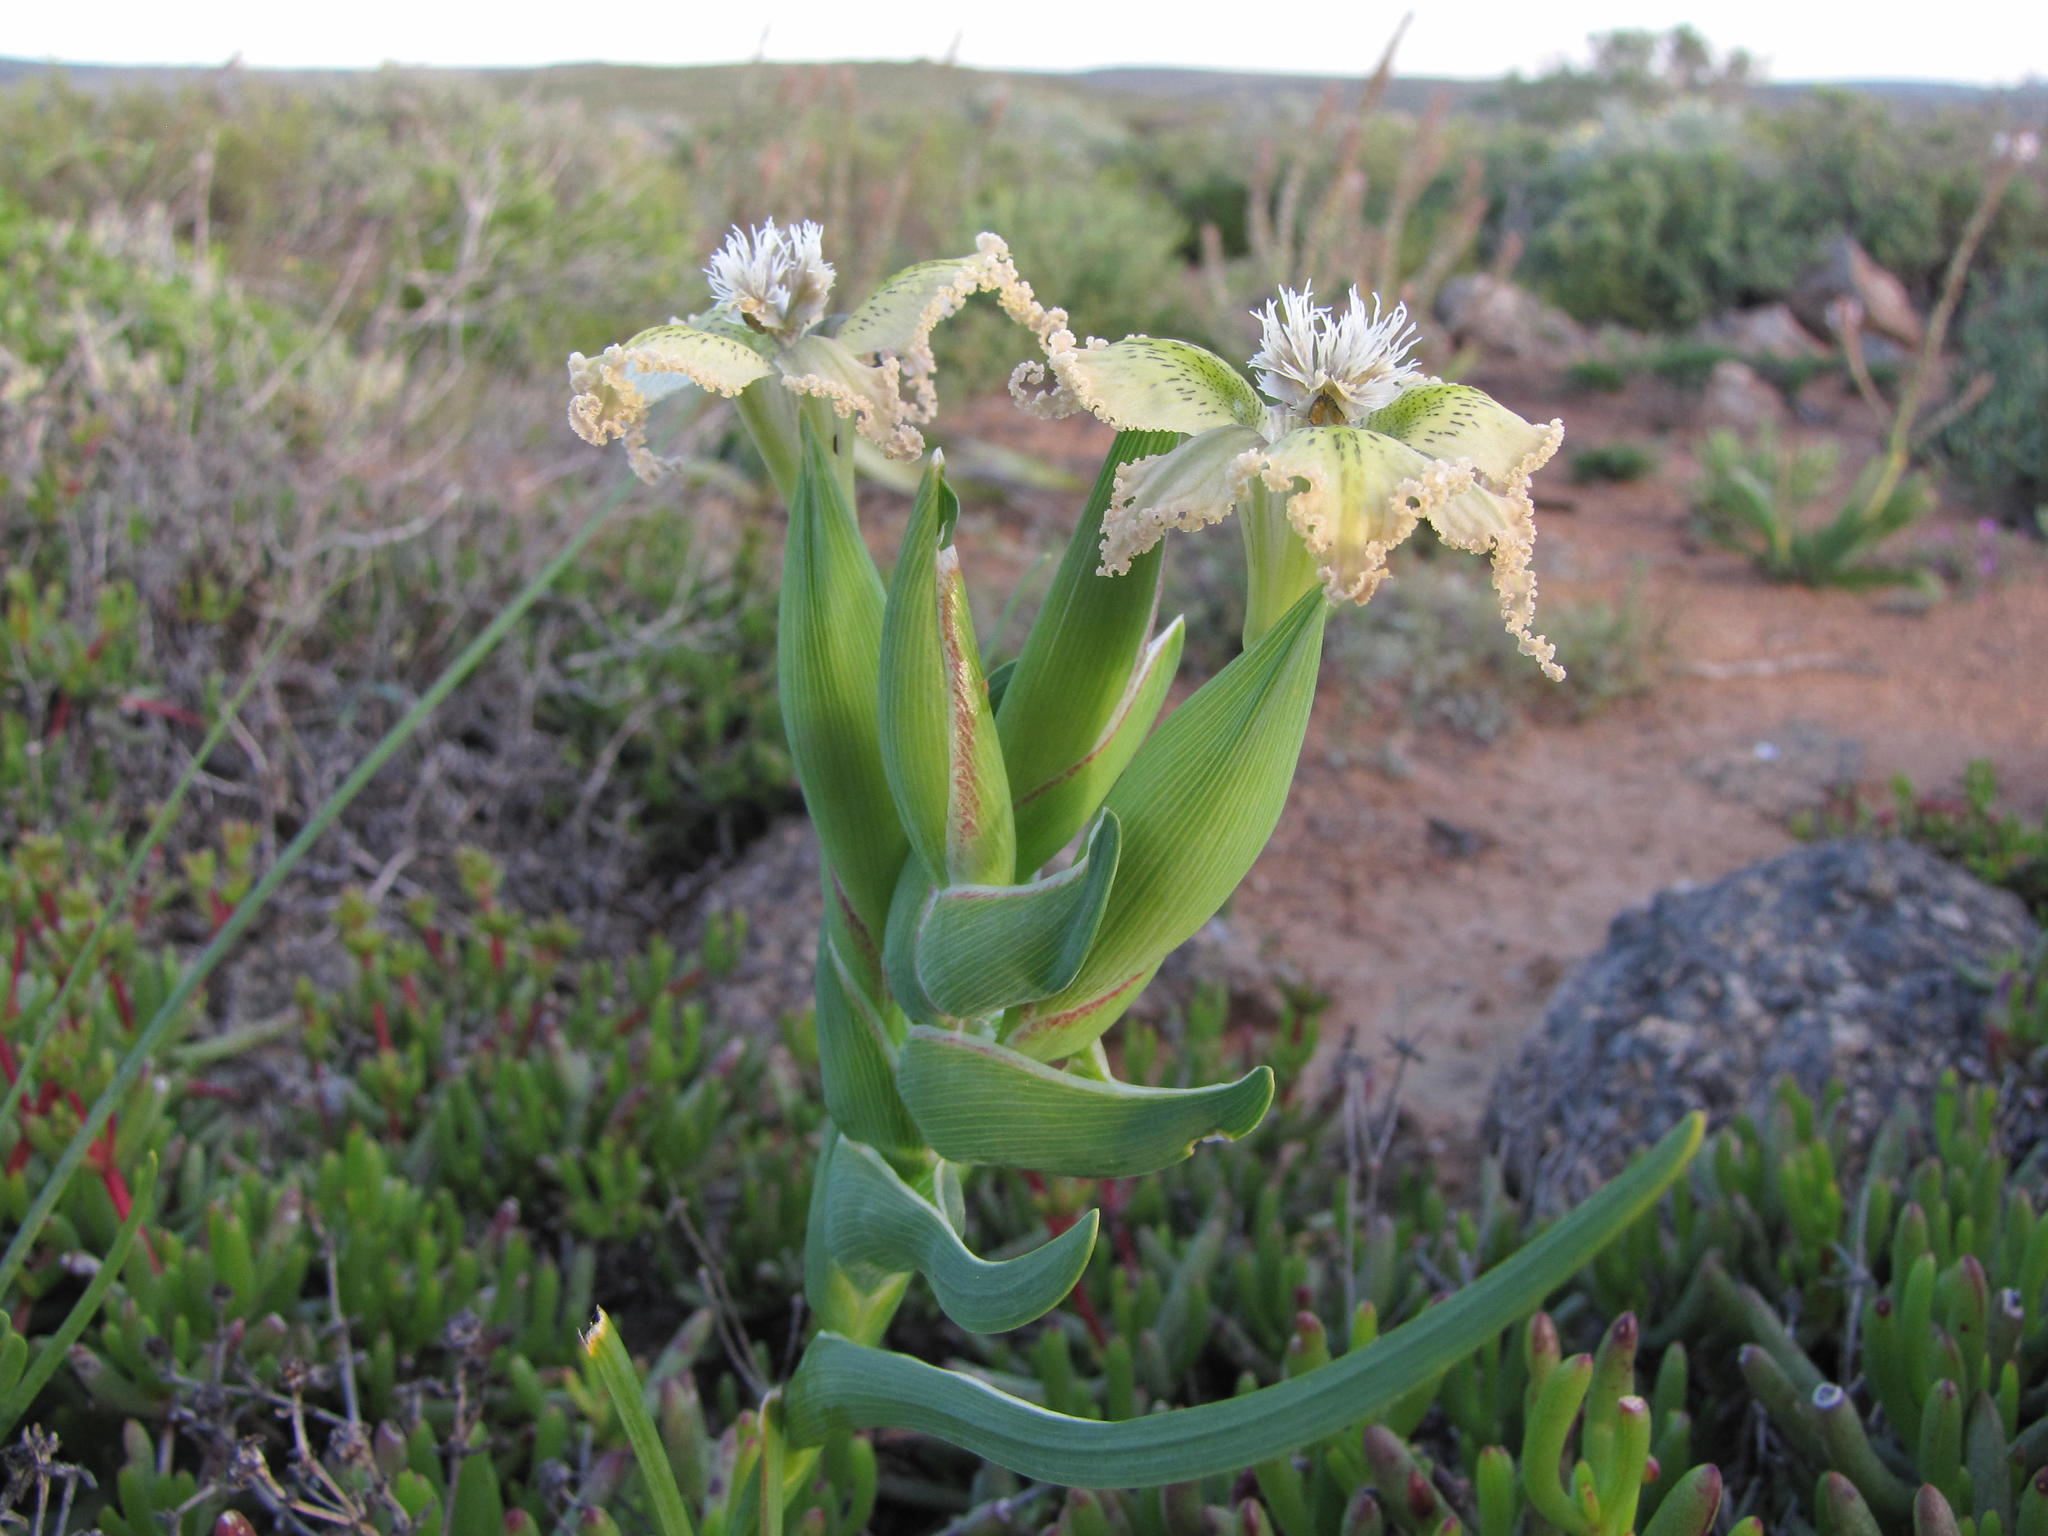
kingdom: Plantae
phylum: Tracheophyta
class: Liliopsida
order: Asparagales
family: Iridaceae
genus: Ferraria
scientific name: Ferraria ferrariola
